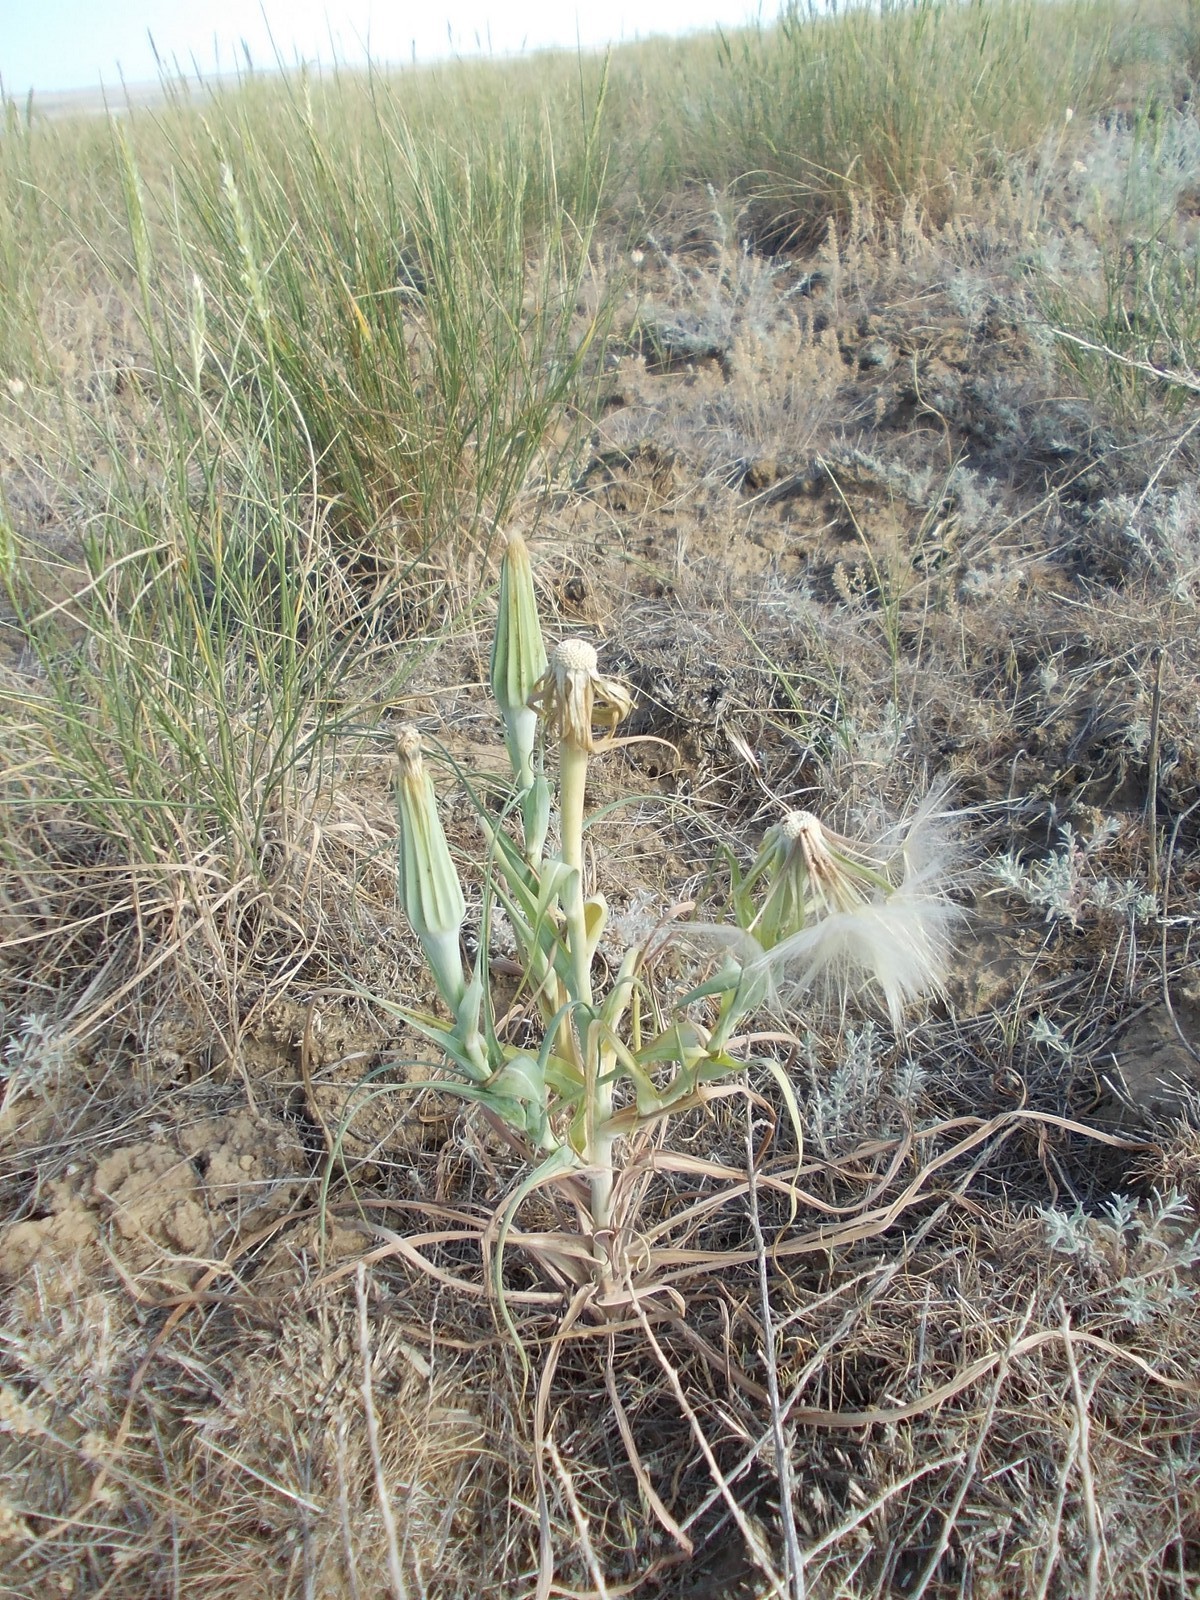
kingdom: Plantae
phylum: Tracheophyta
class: Magnoliopsida
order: Asterales
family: Asteraceae
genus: Tragopogon
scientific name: Tragopogon dubius
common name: Yellow salsify
